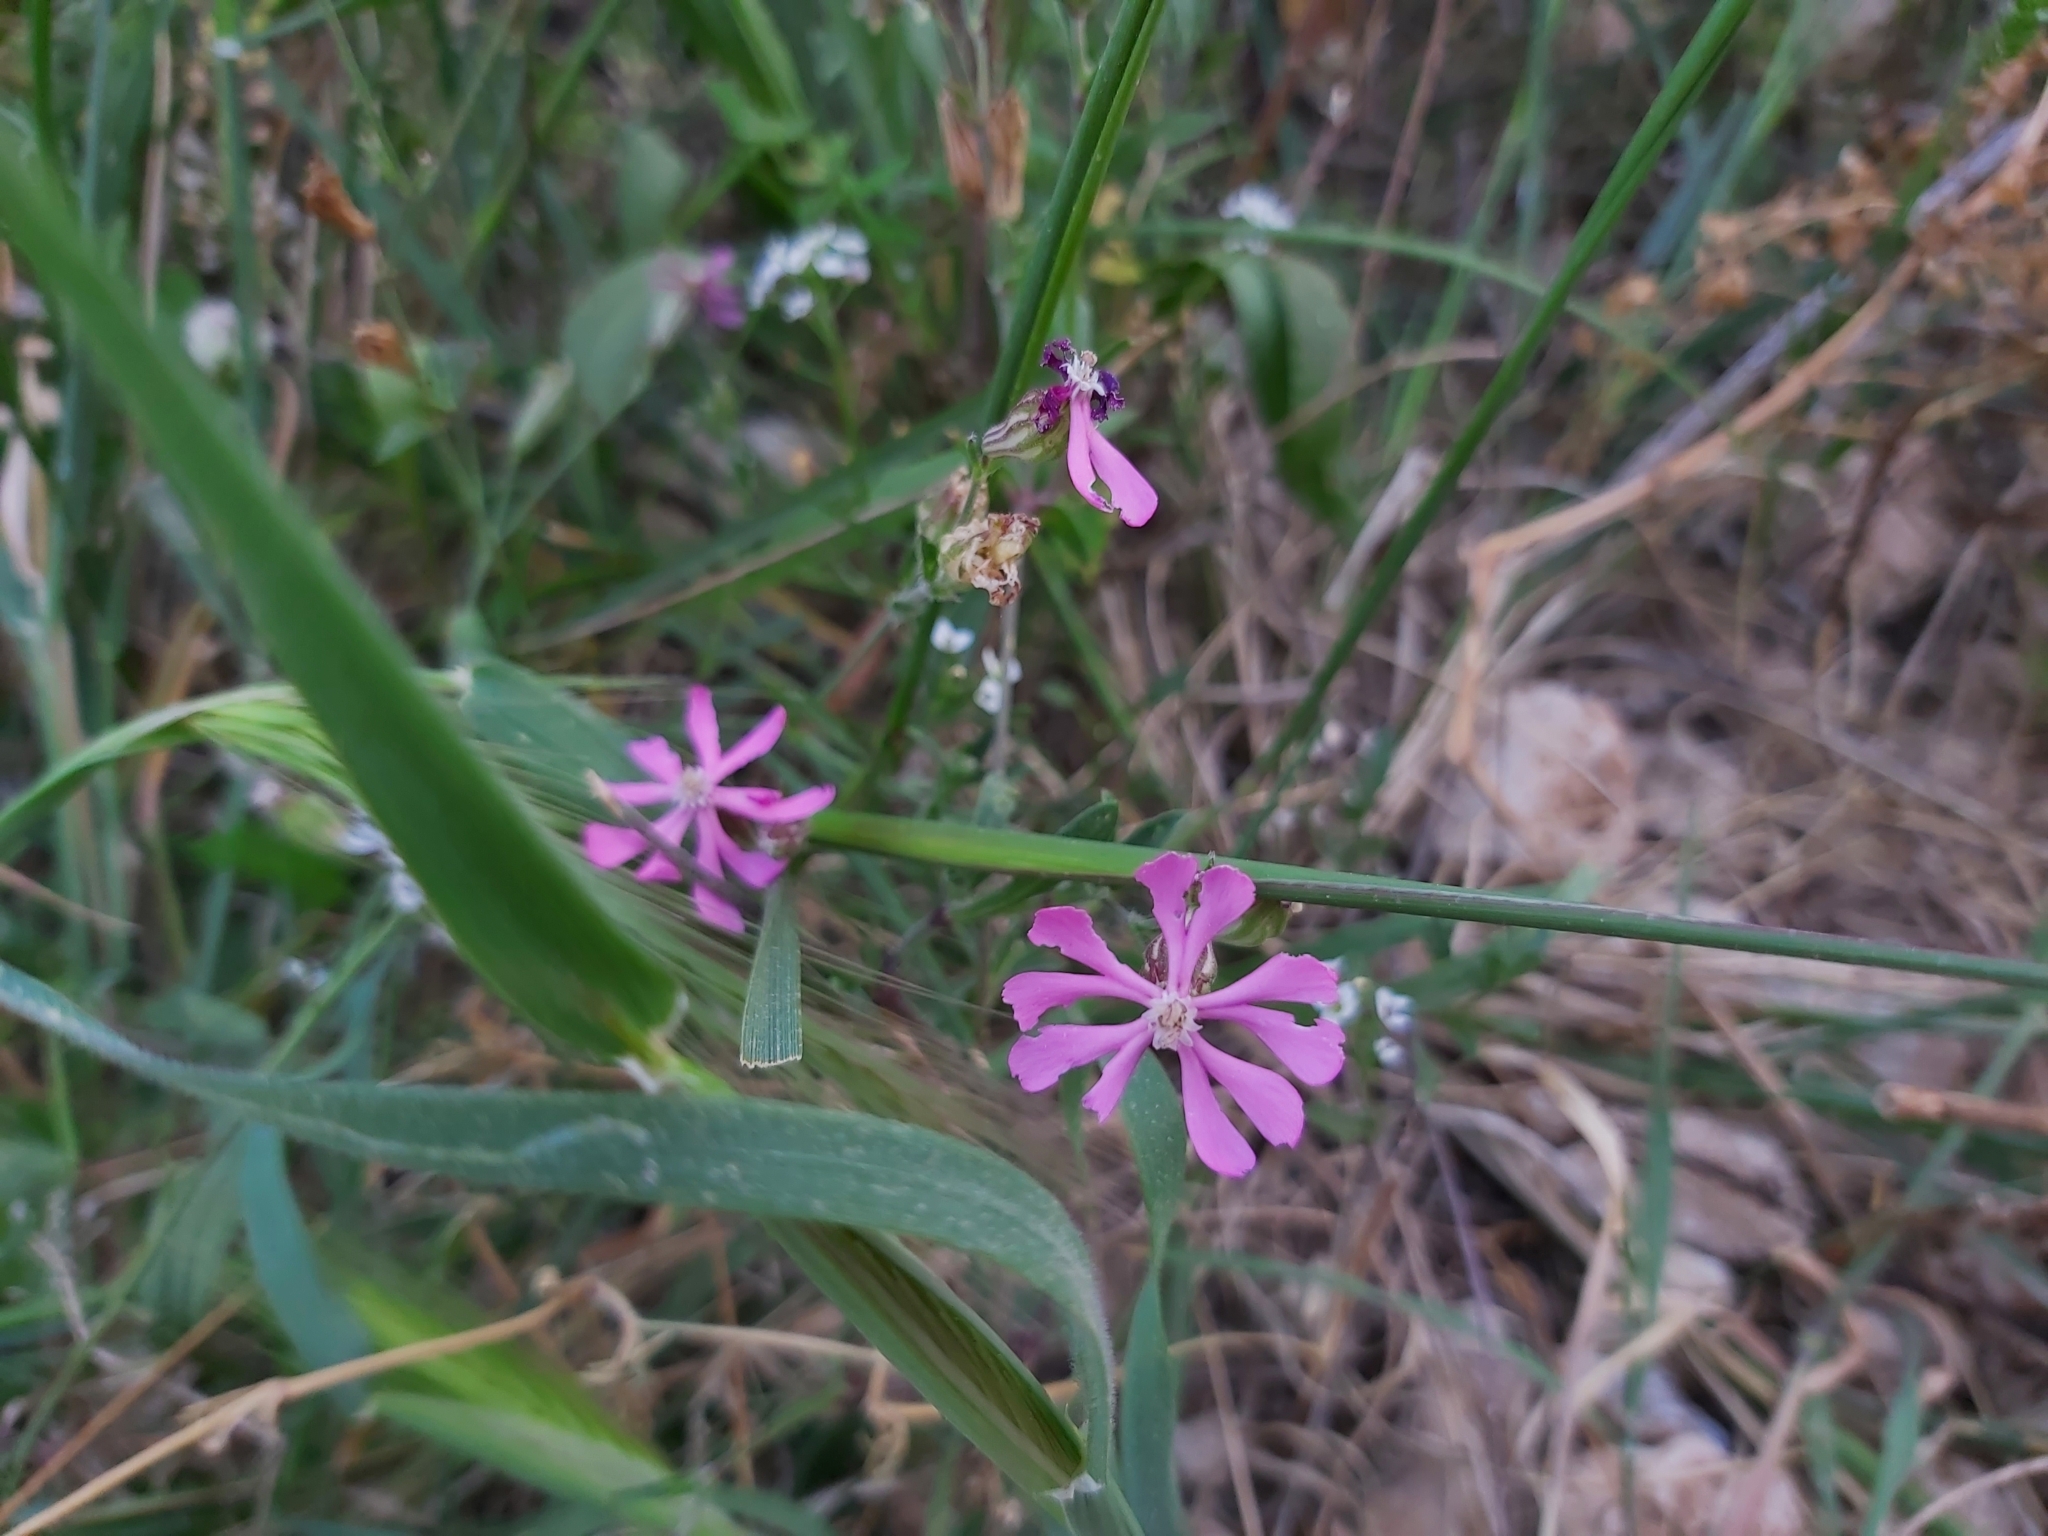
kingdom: Plantae
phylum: Tracheophyta
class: Magnoliopsida
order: Caryophyllales
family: Caryophyllaceae
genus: Silene
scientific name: Silene colorata
